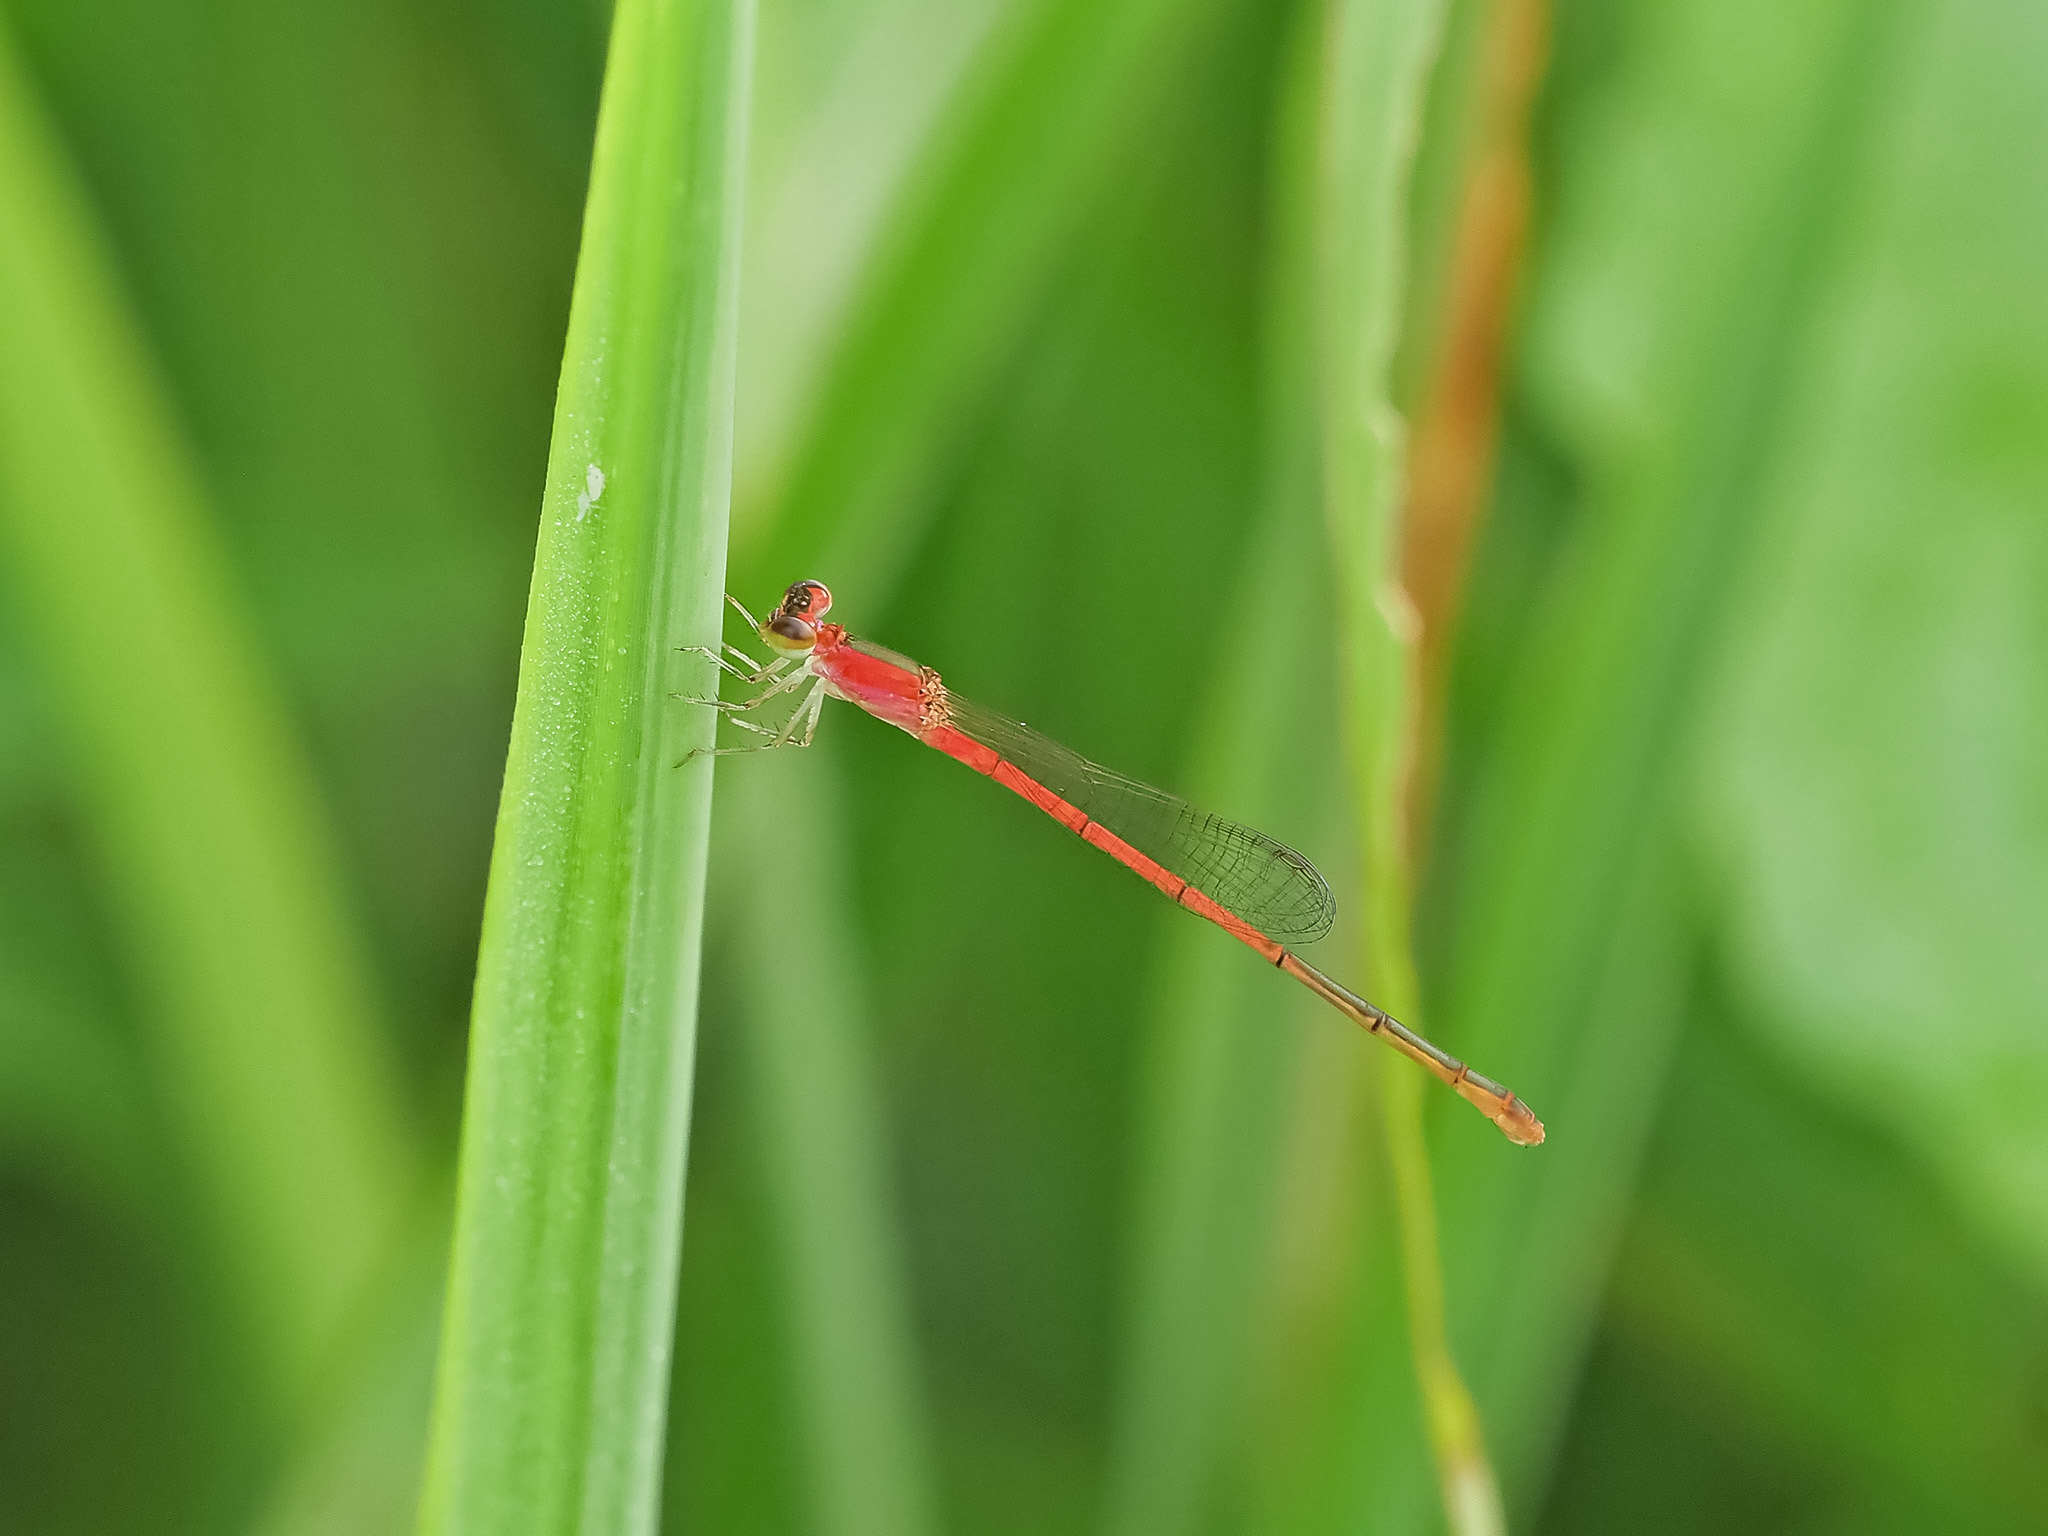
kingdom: Animalia
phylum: Arthropoda
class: Insecta
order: Odonata
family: Coenagrionidae
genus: Agriocnemis
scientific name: Agriocnemis femina
